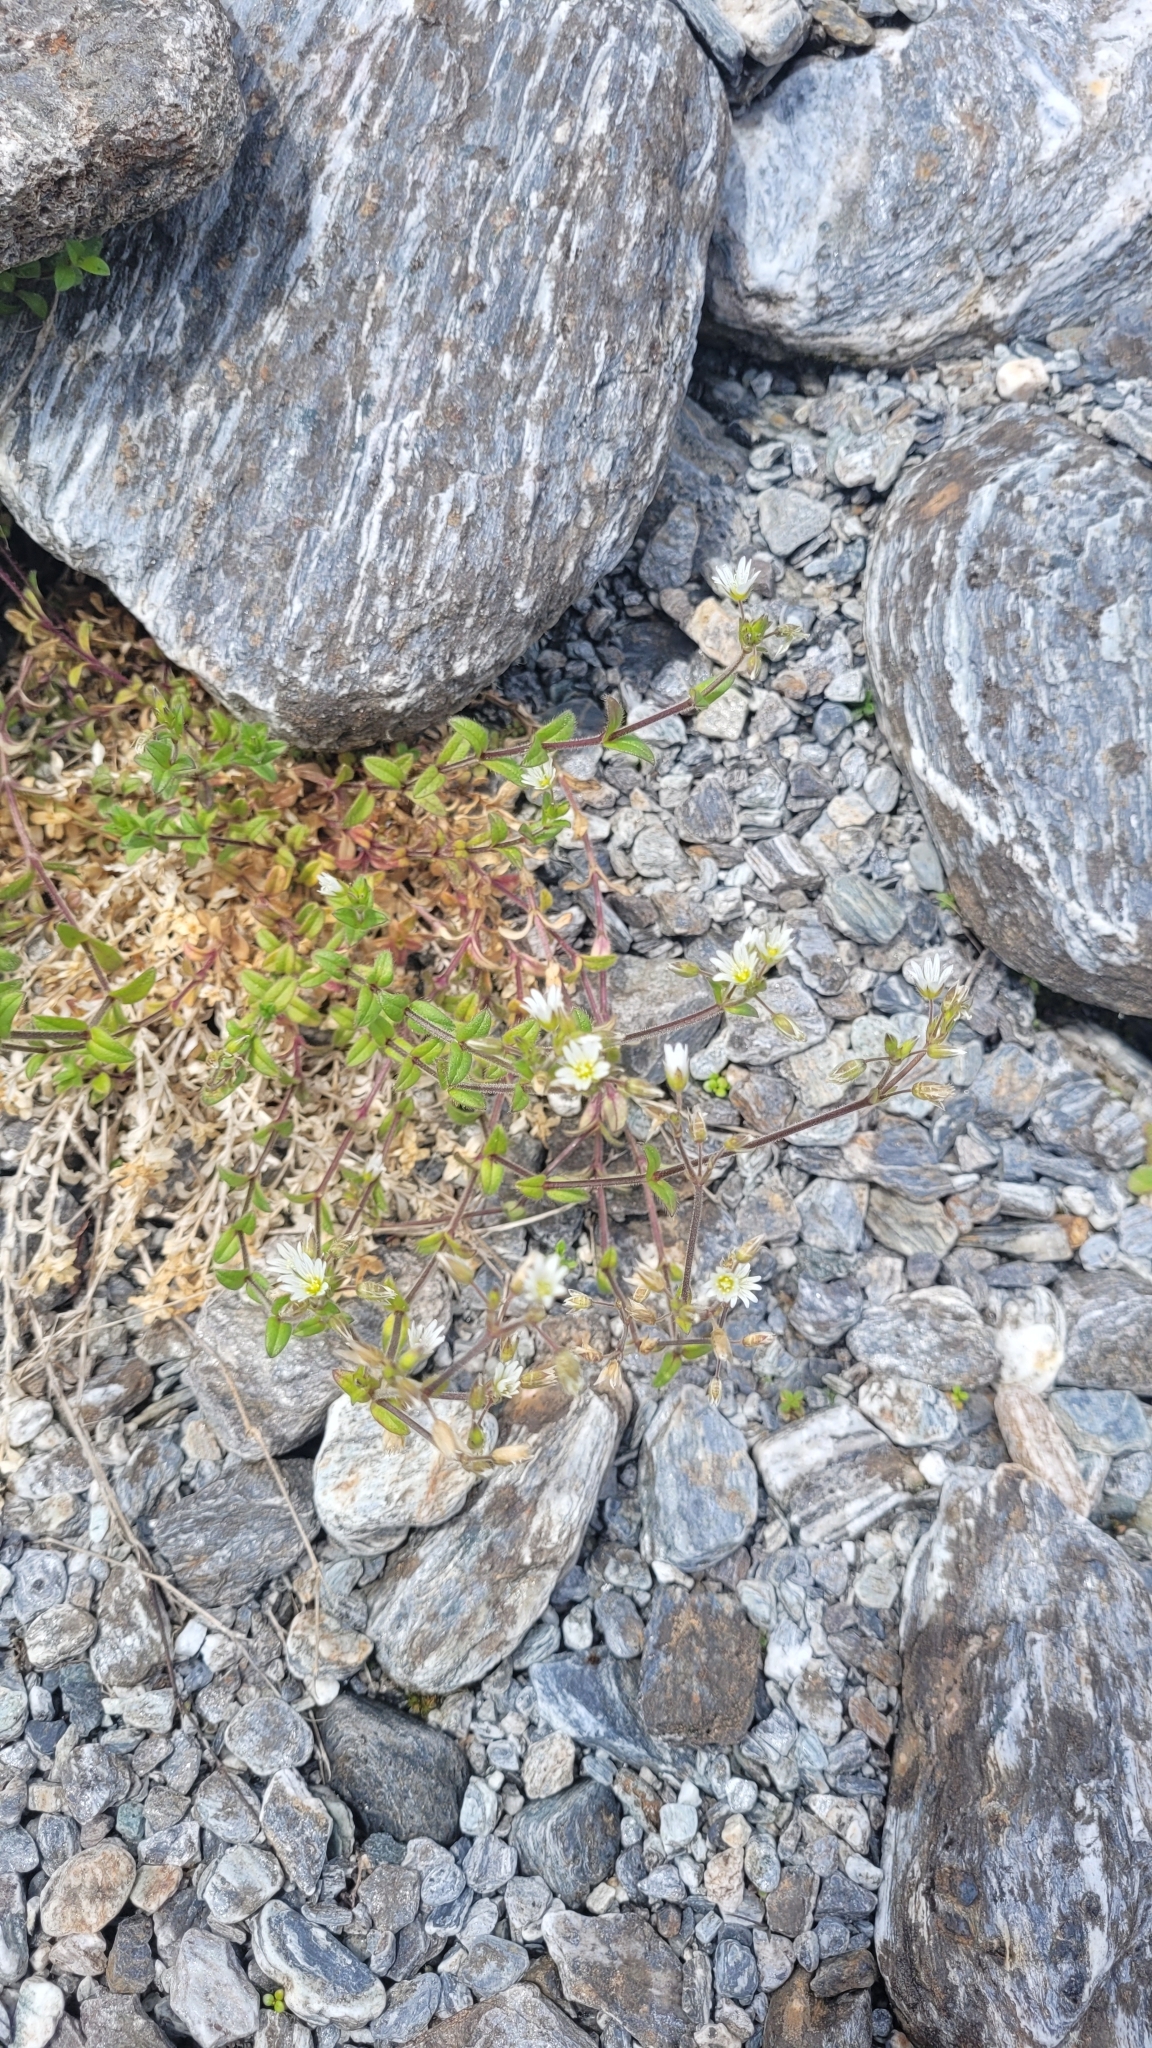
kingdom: Plantae
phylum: Tracheophyta
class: Magnoliopsida
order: Caryophyllales
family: Caryophyllaceae
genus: Cerastium
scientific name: Cerastium fontanum
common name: Common mouse-ear
